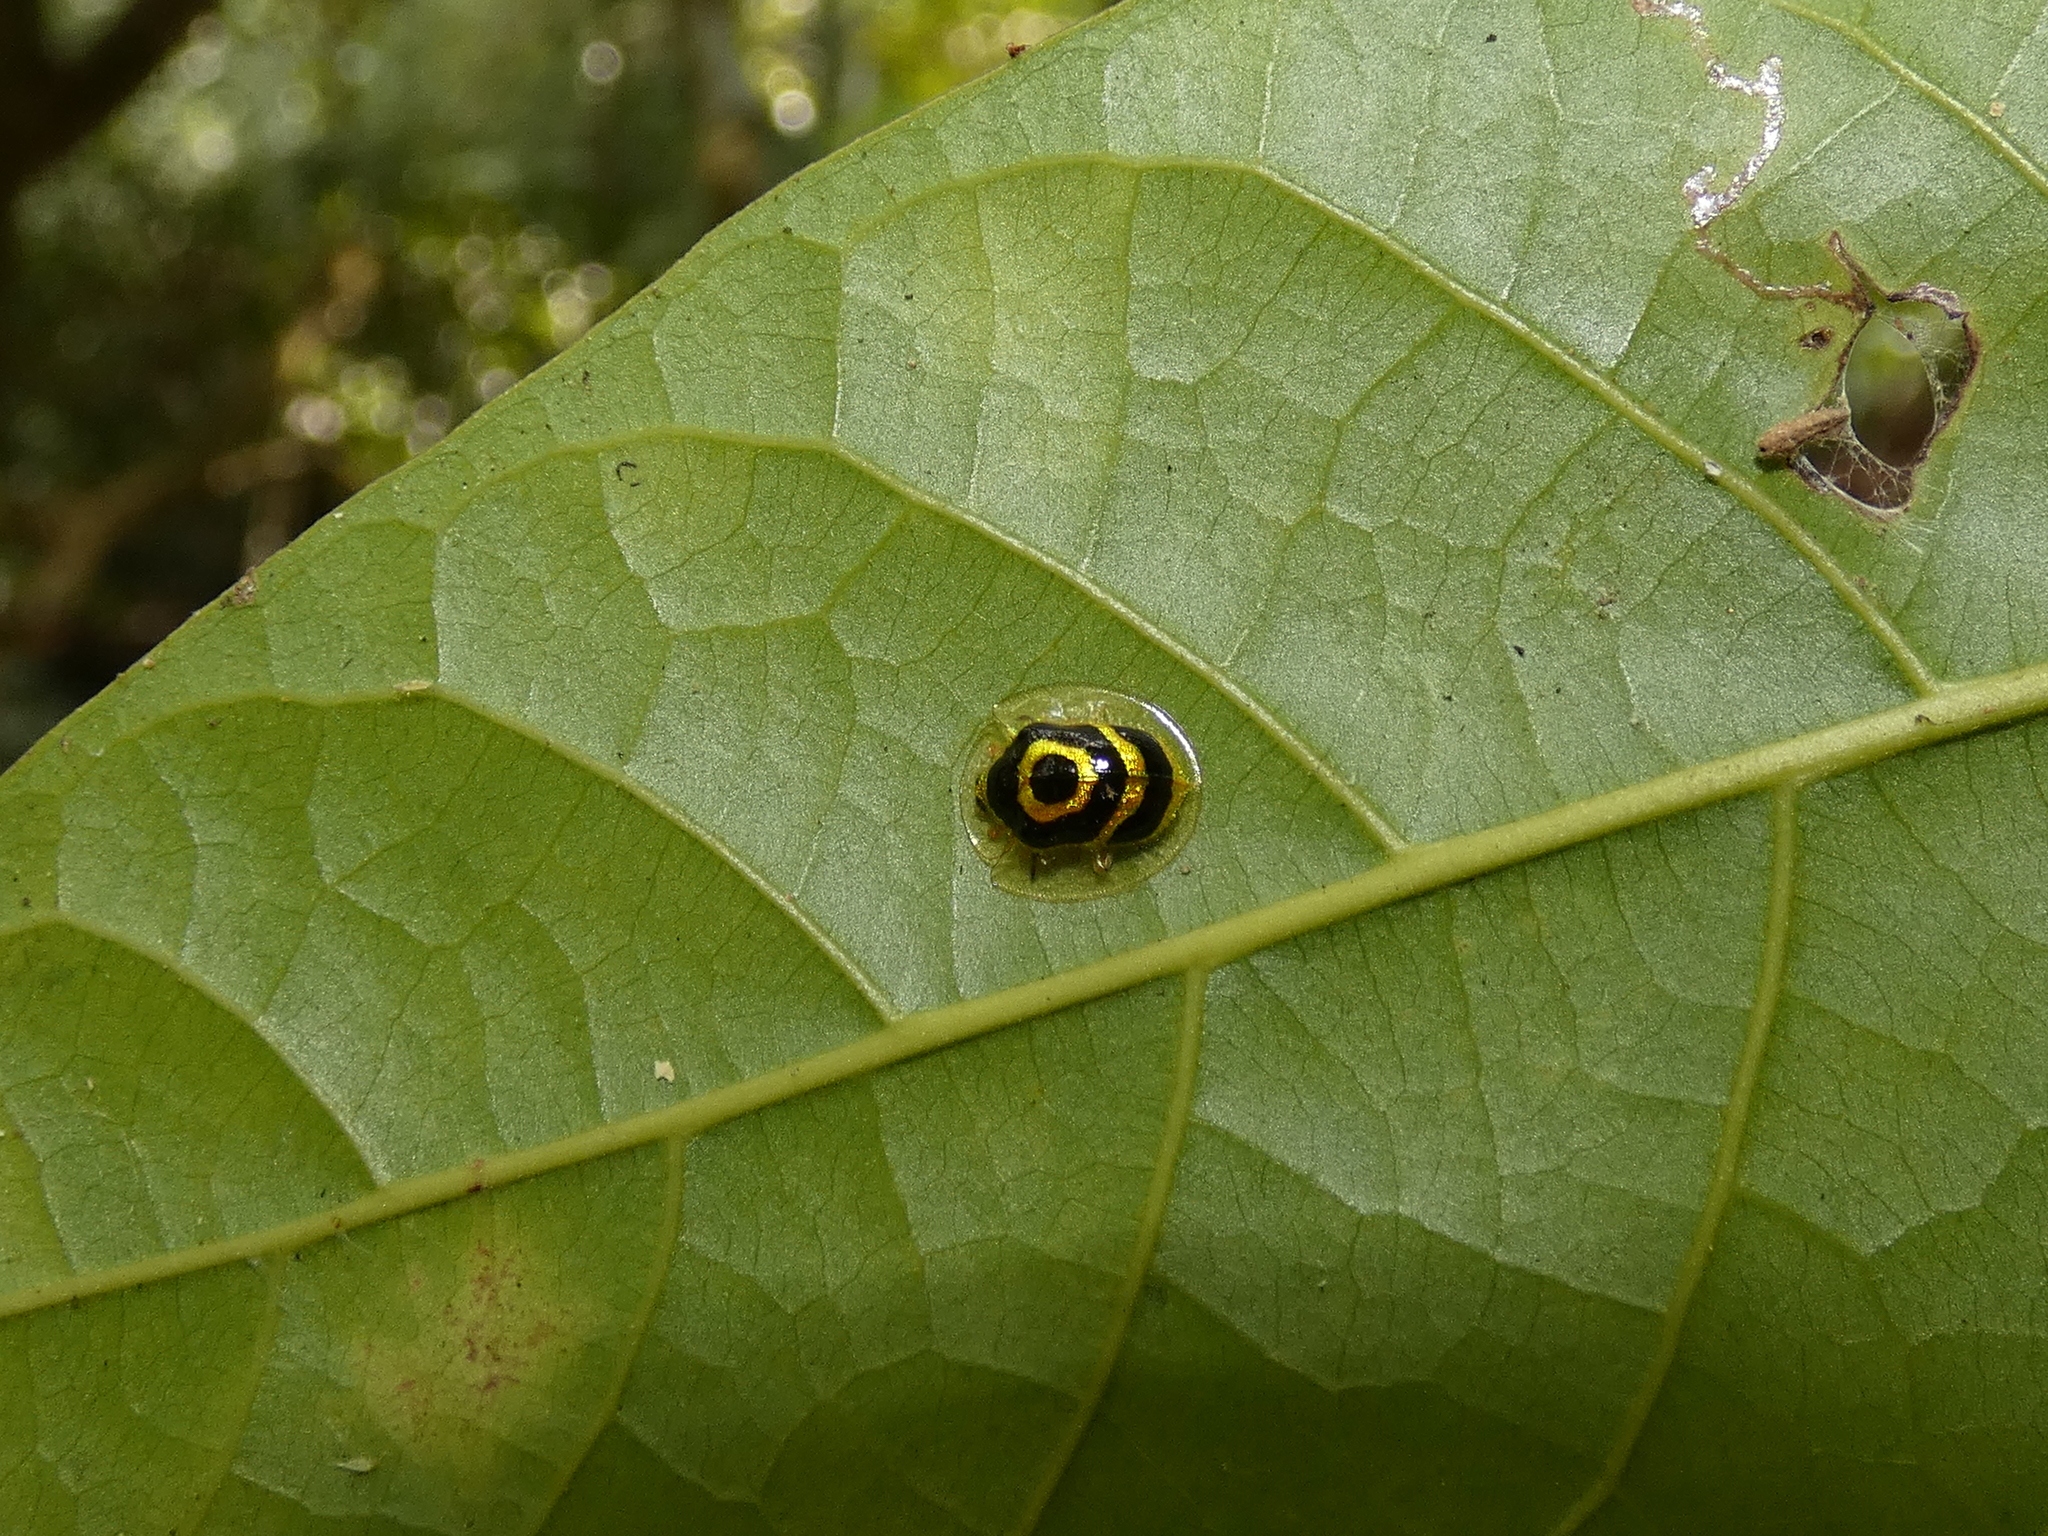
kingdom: Animalia
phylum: Arthropoda
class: Insecta
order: Coleoptera
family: Chrysomelidae
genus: Ischnocodia
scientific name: Ischnocodia annulus
